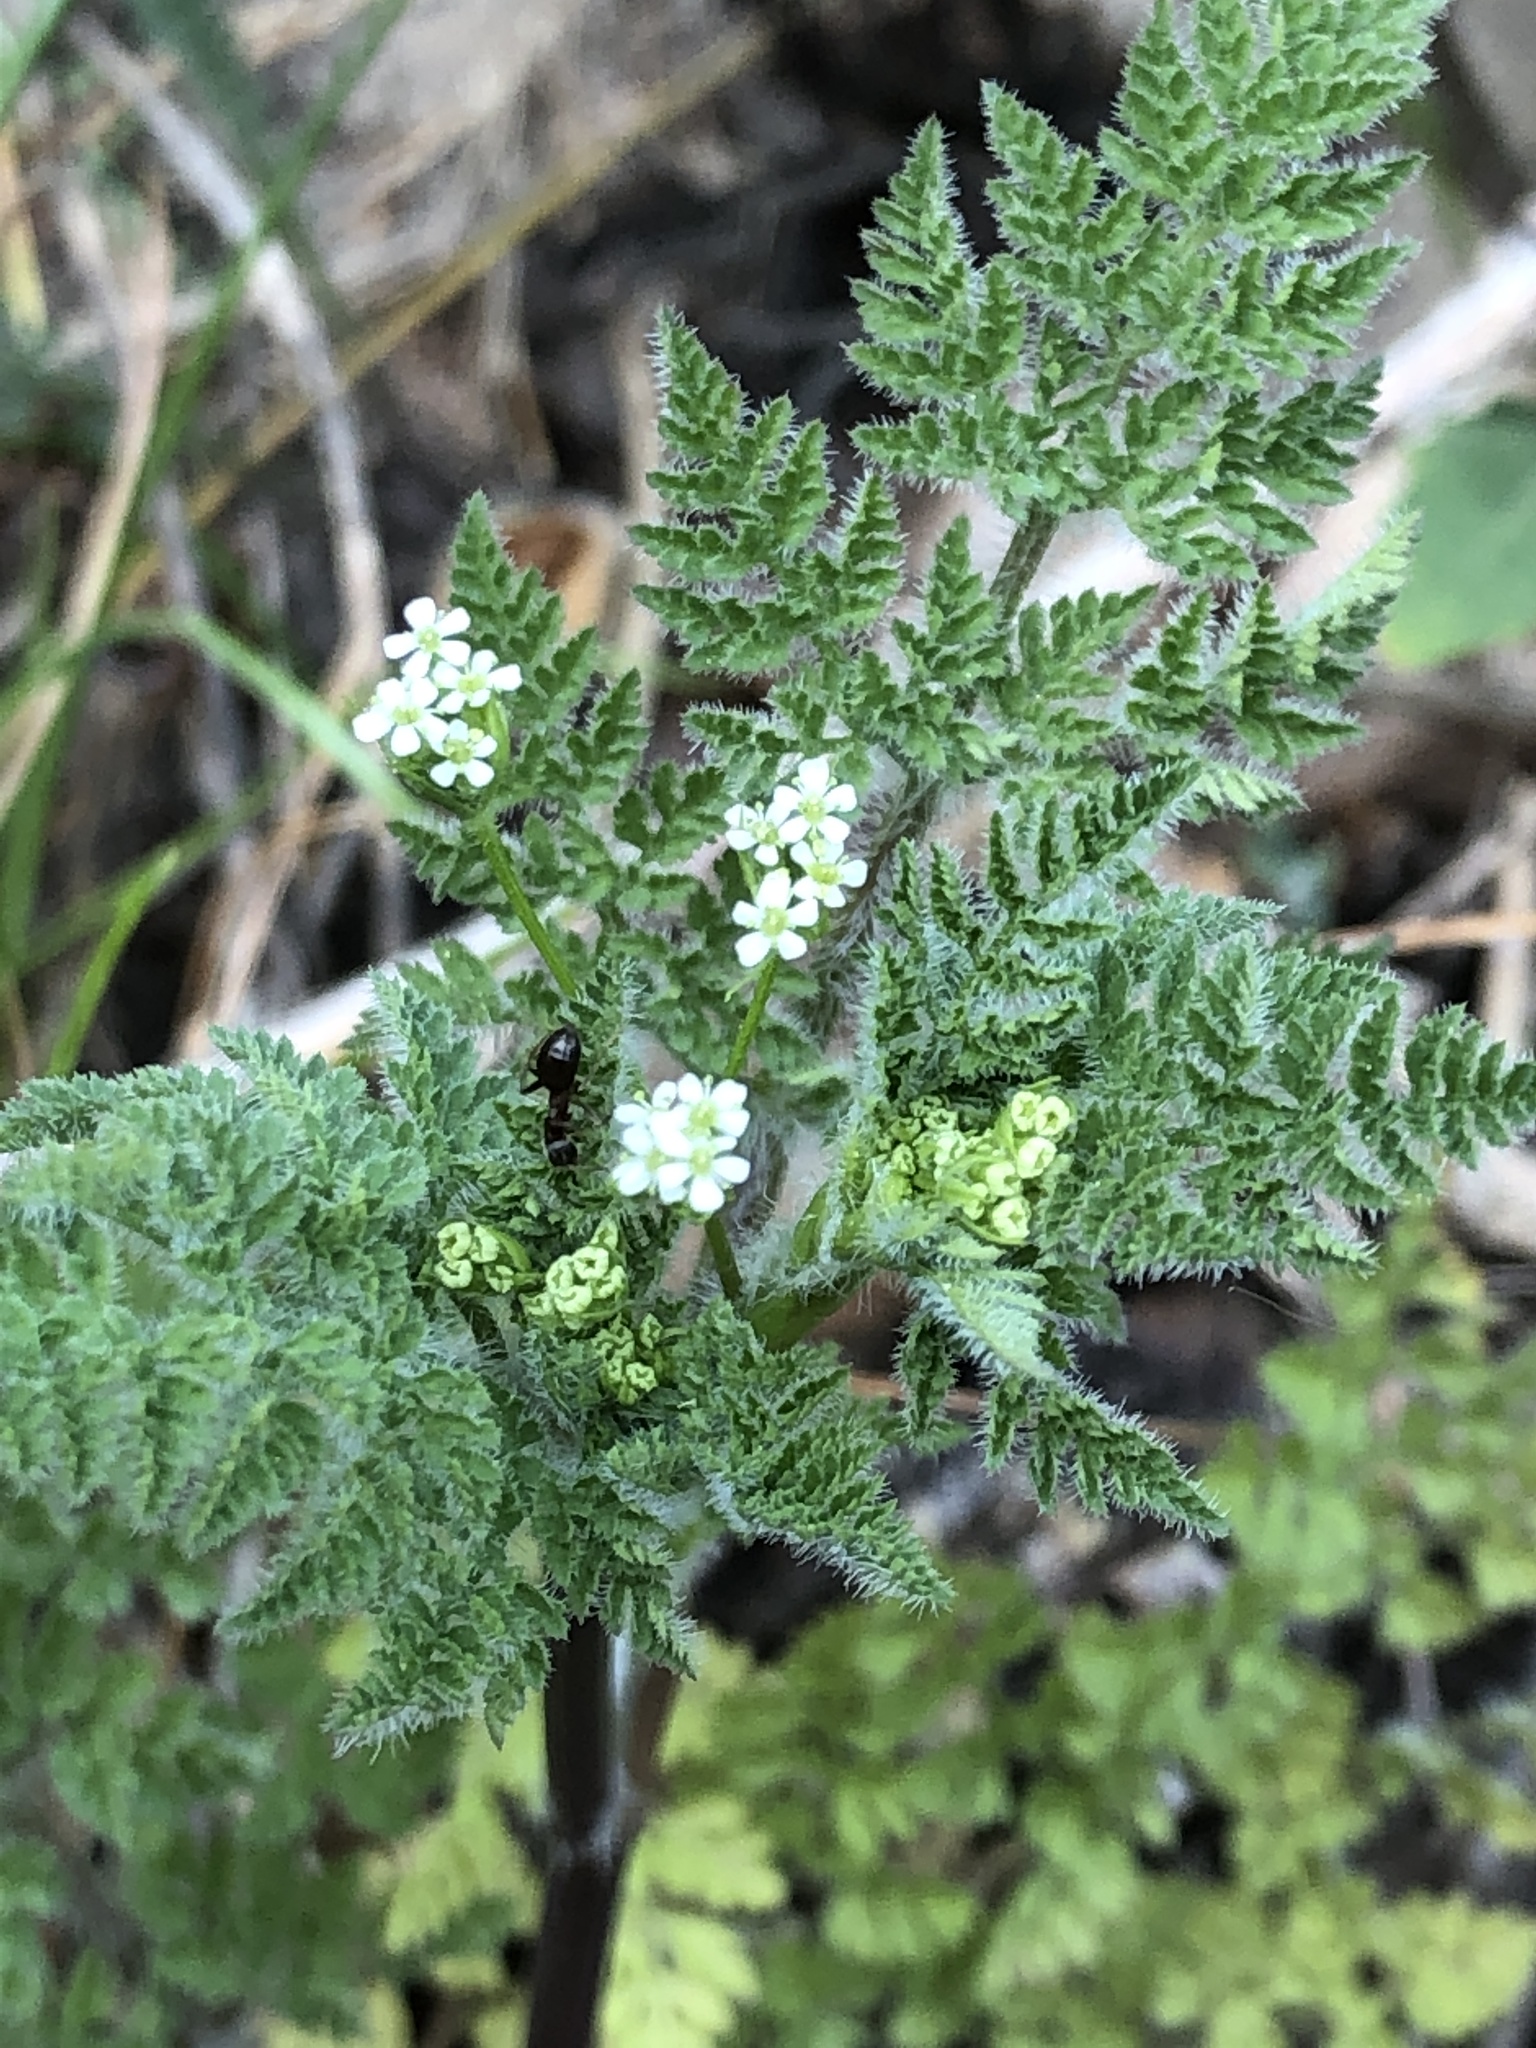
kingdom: Plantae
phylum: Tracheophyta
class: Magnoliopsida
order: Apiales
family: Apiaceae
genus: Anthriscus
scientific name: Anthriscus caucalis
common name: Bur chervil
